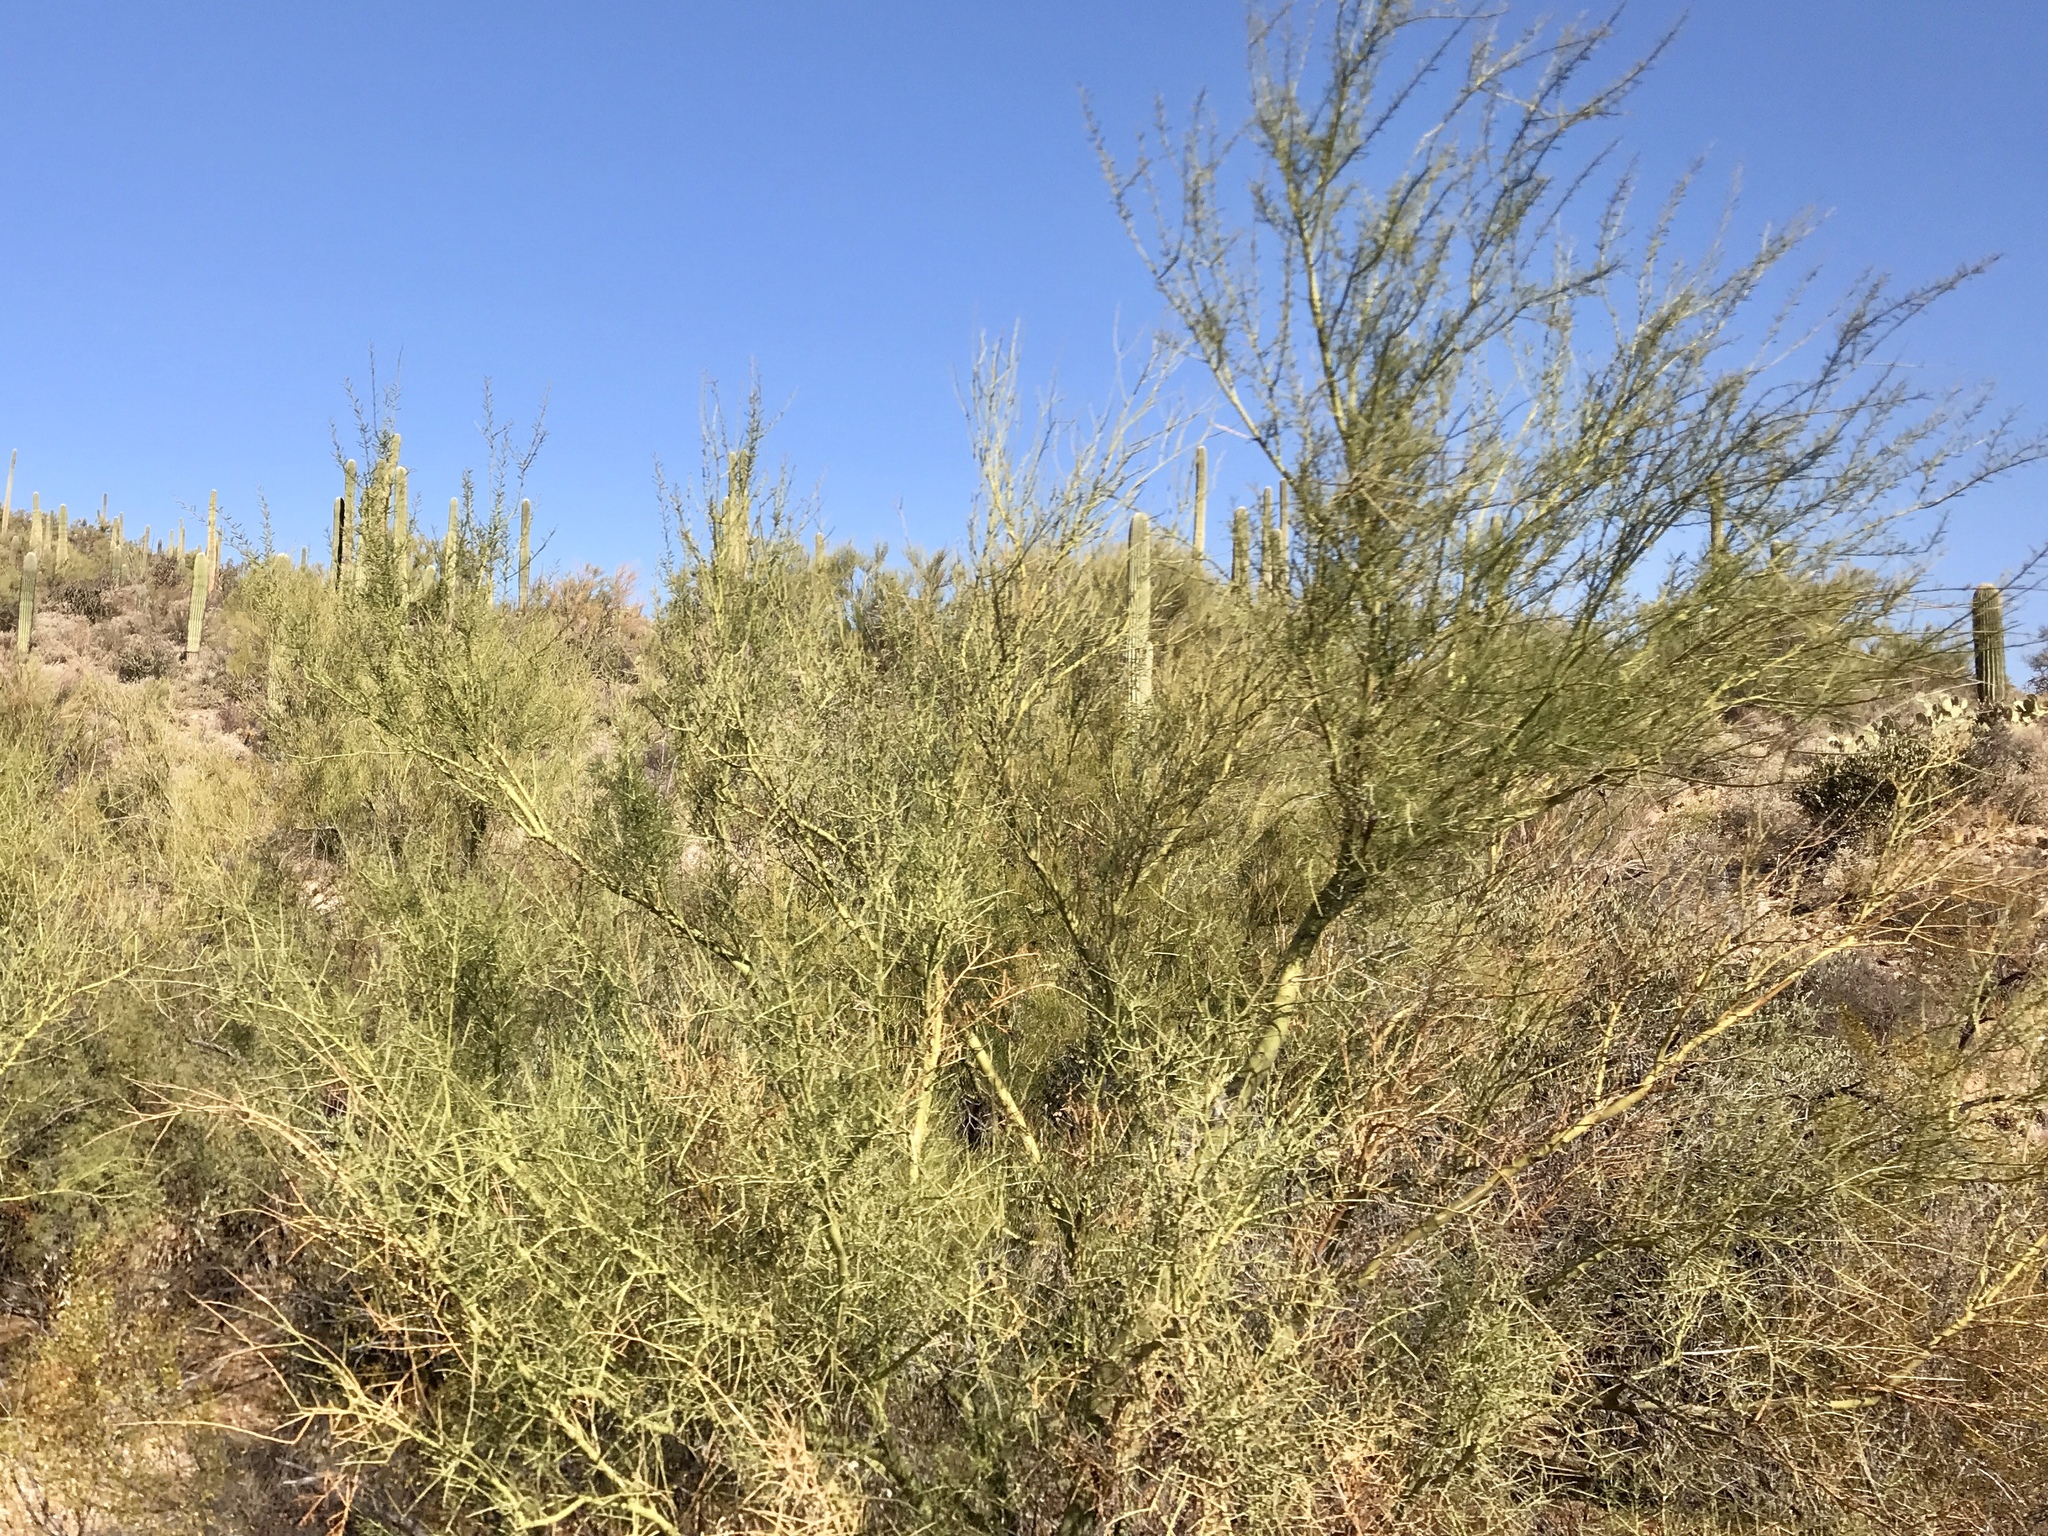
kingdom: Plantae
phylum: Tracheophyta
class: Magnoliopsida
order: Fabales
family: Fabaceae
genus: Parkinsonia
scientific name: Parkinsonia microphylla
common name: Yellow paloverde
